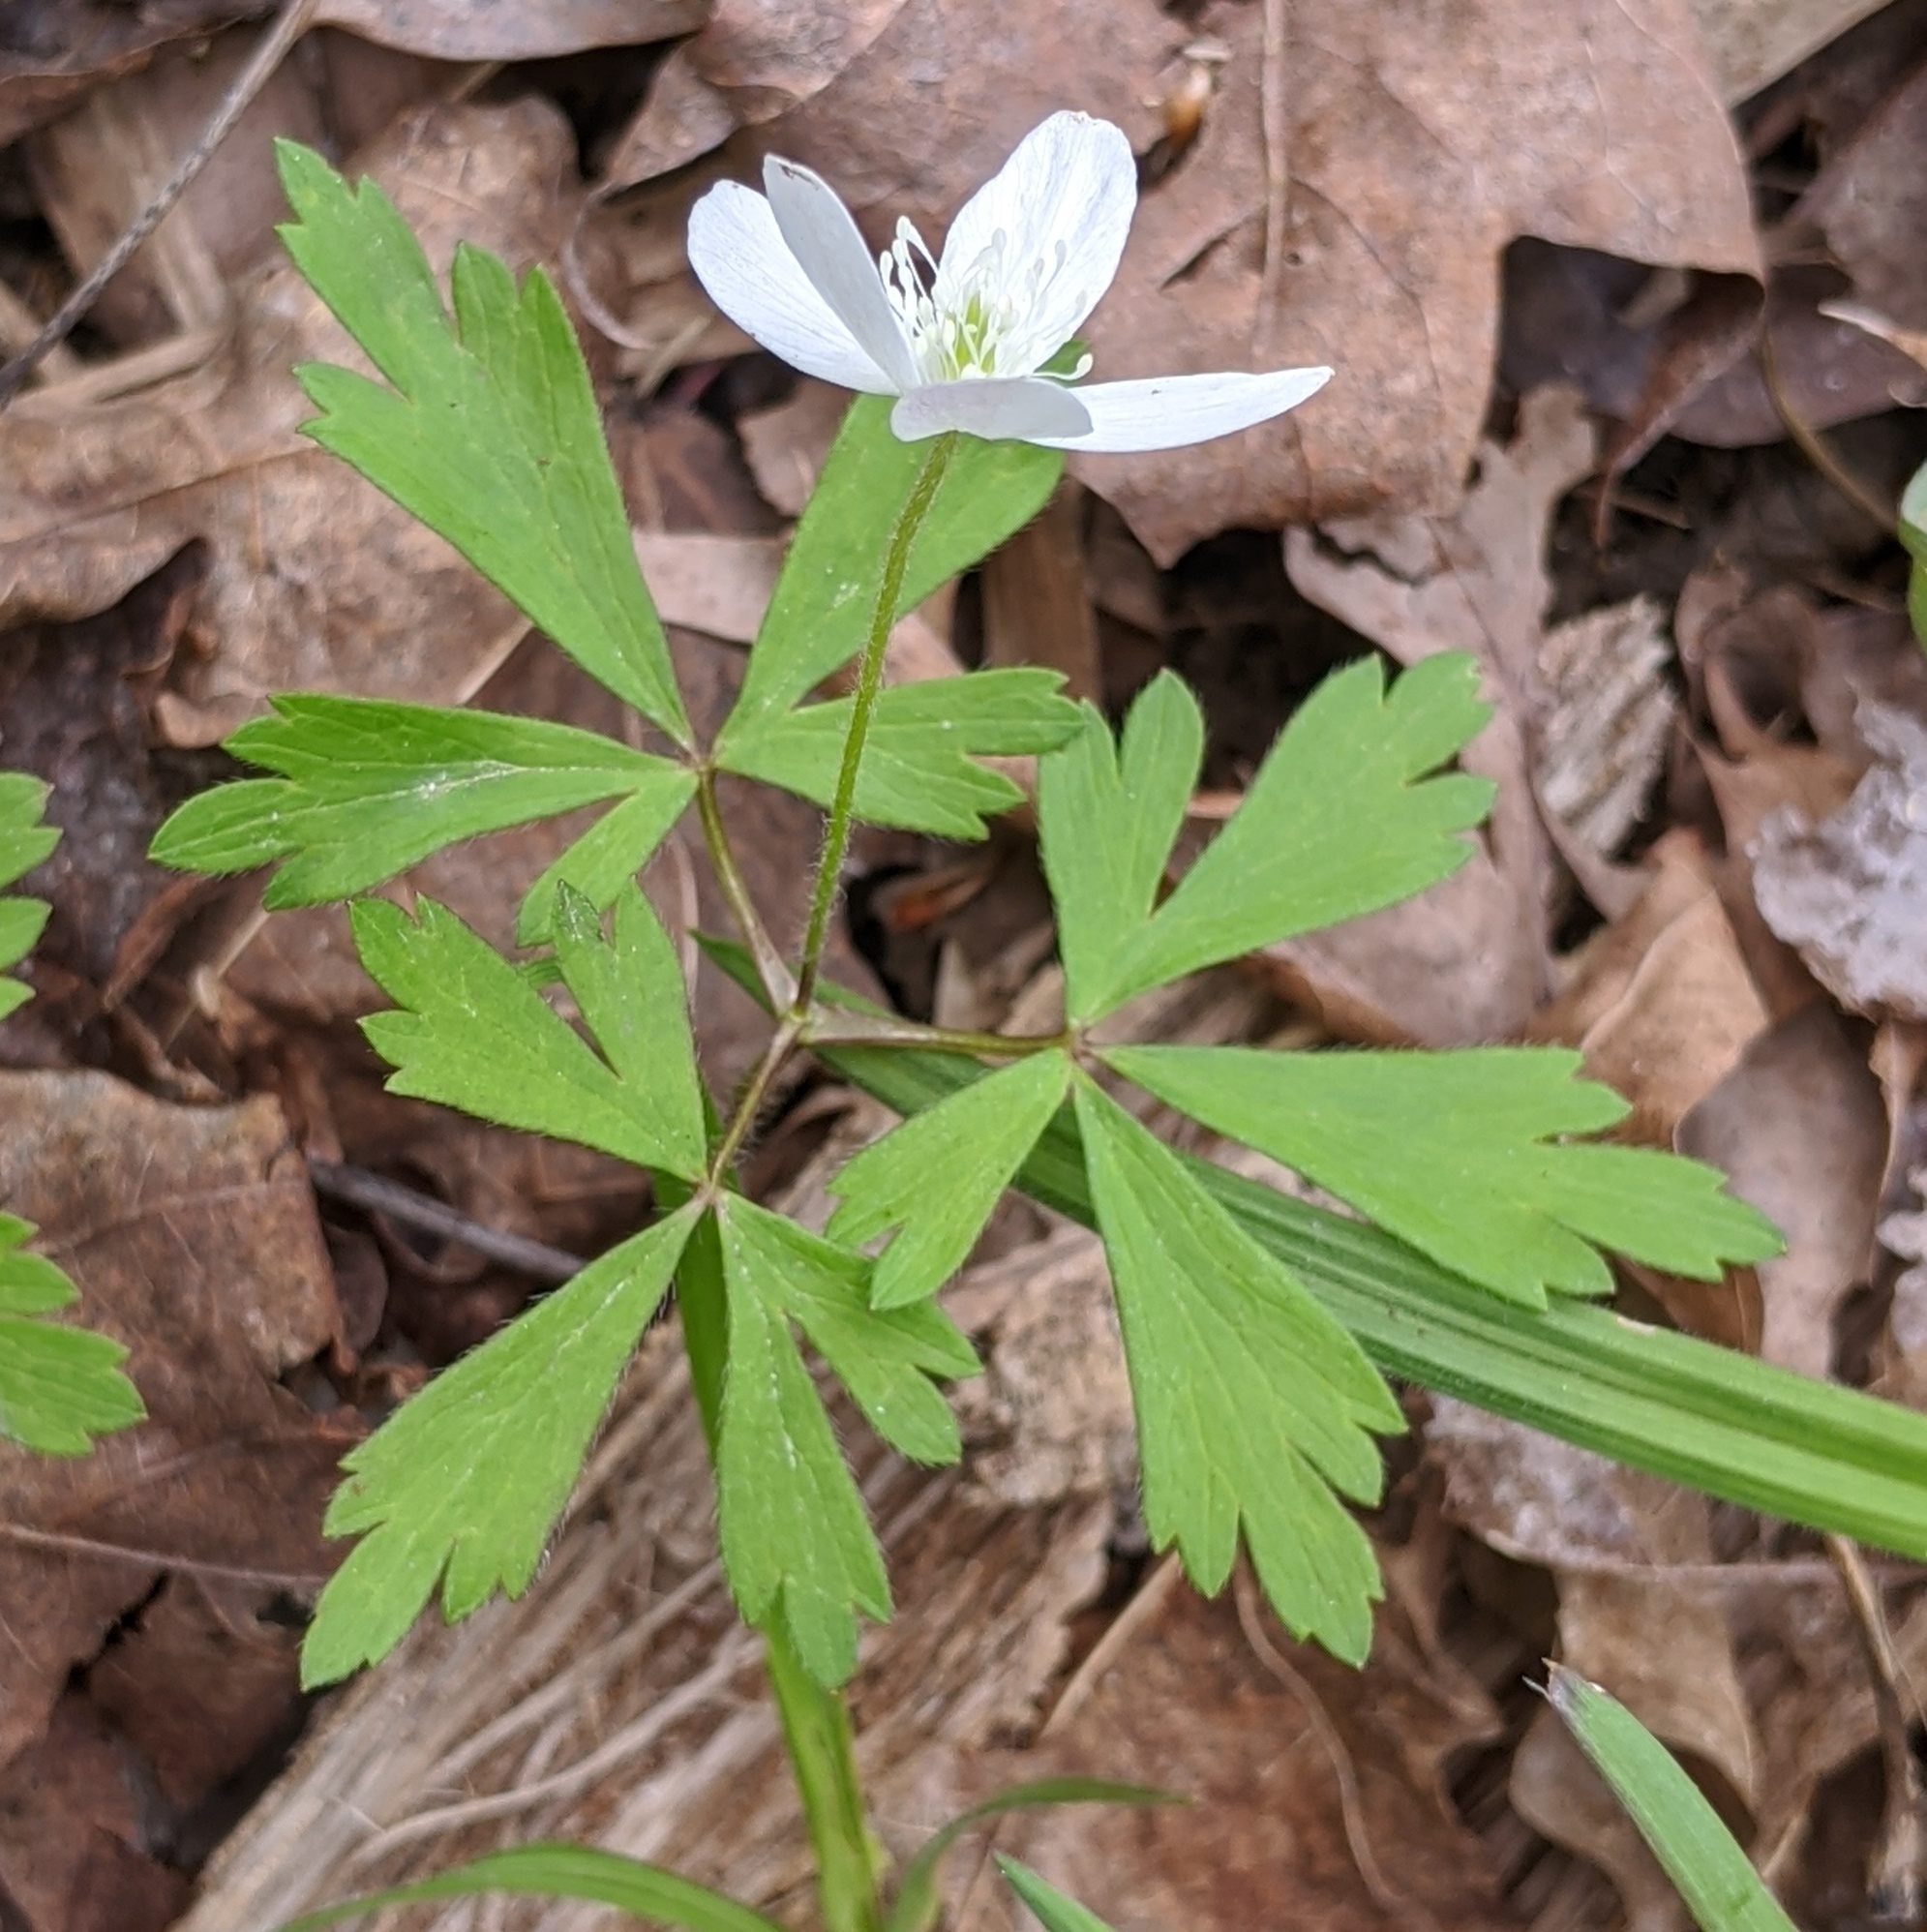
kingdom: Plantae
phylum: Tracheophyta
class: Magnoliopsida
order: Ranunculales
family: Ranunculaceae
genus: Anemone
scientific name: Anemone quinquefolia
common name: Wood anemone
